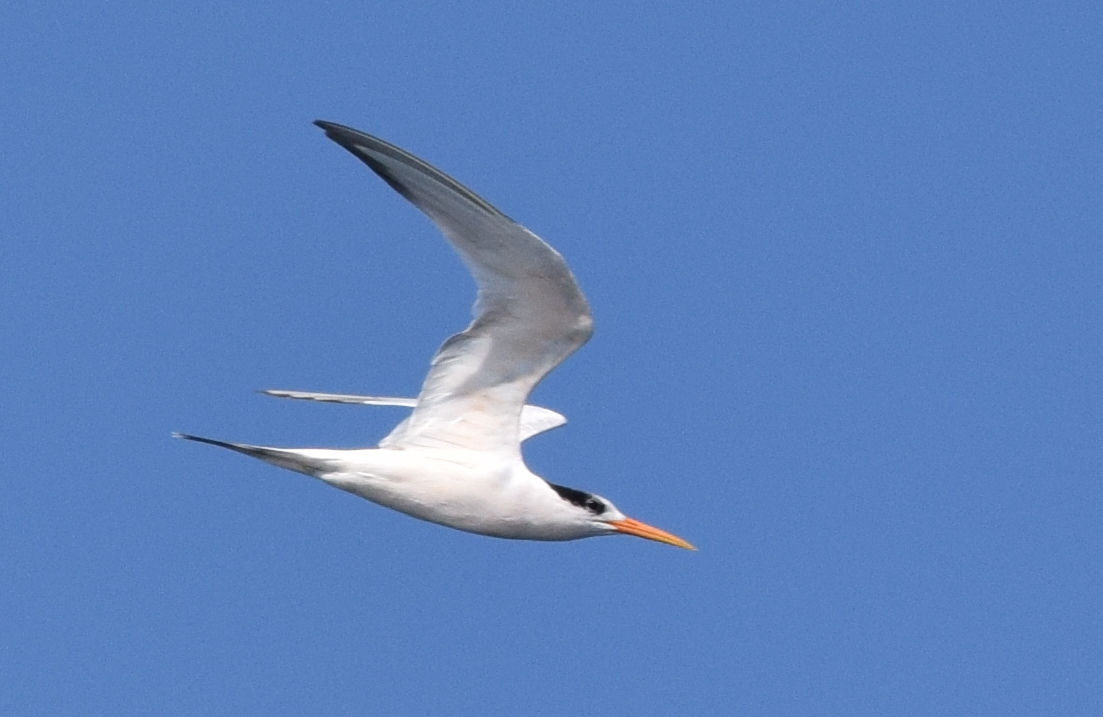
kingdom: Animalia
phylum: Chordata
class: Aves
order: Charadriiformes
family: Laridae
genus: Thalasseus
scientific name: Thalasseus elegans
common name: Elegant tern
